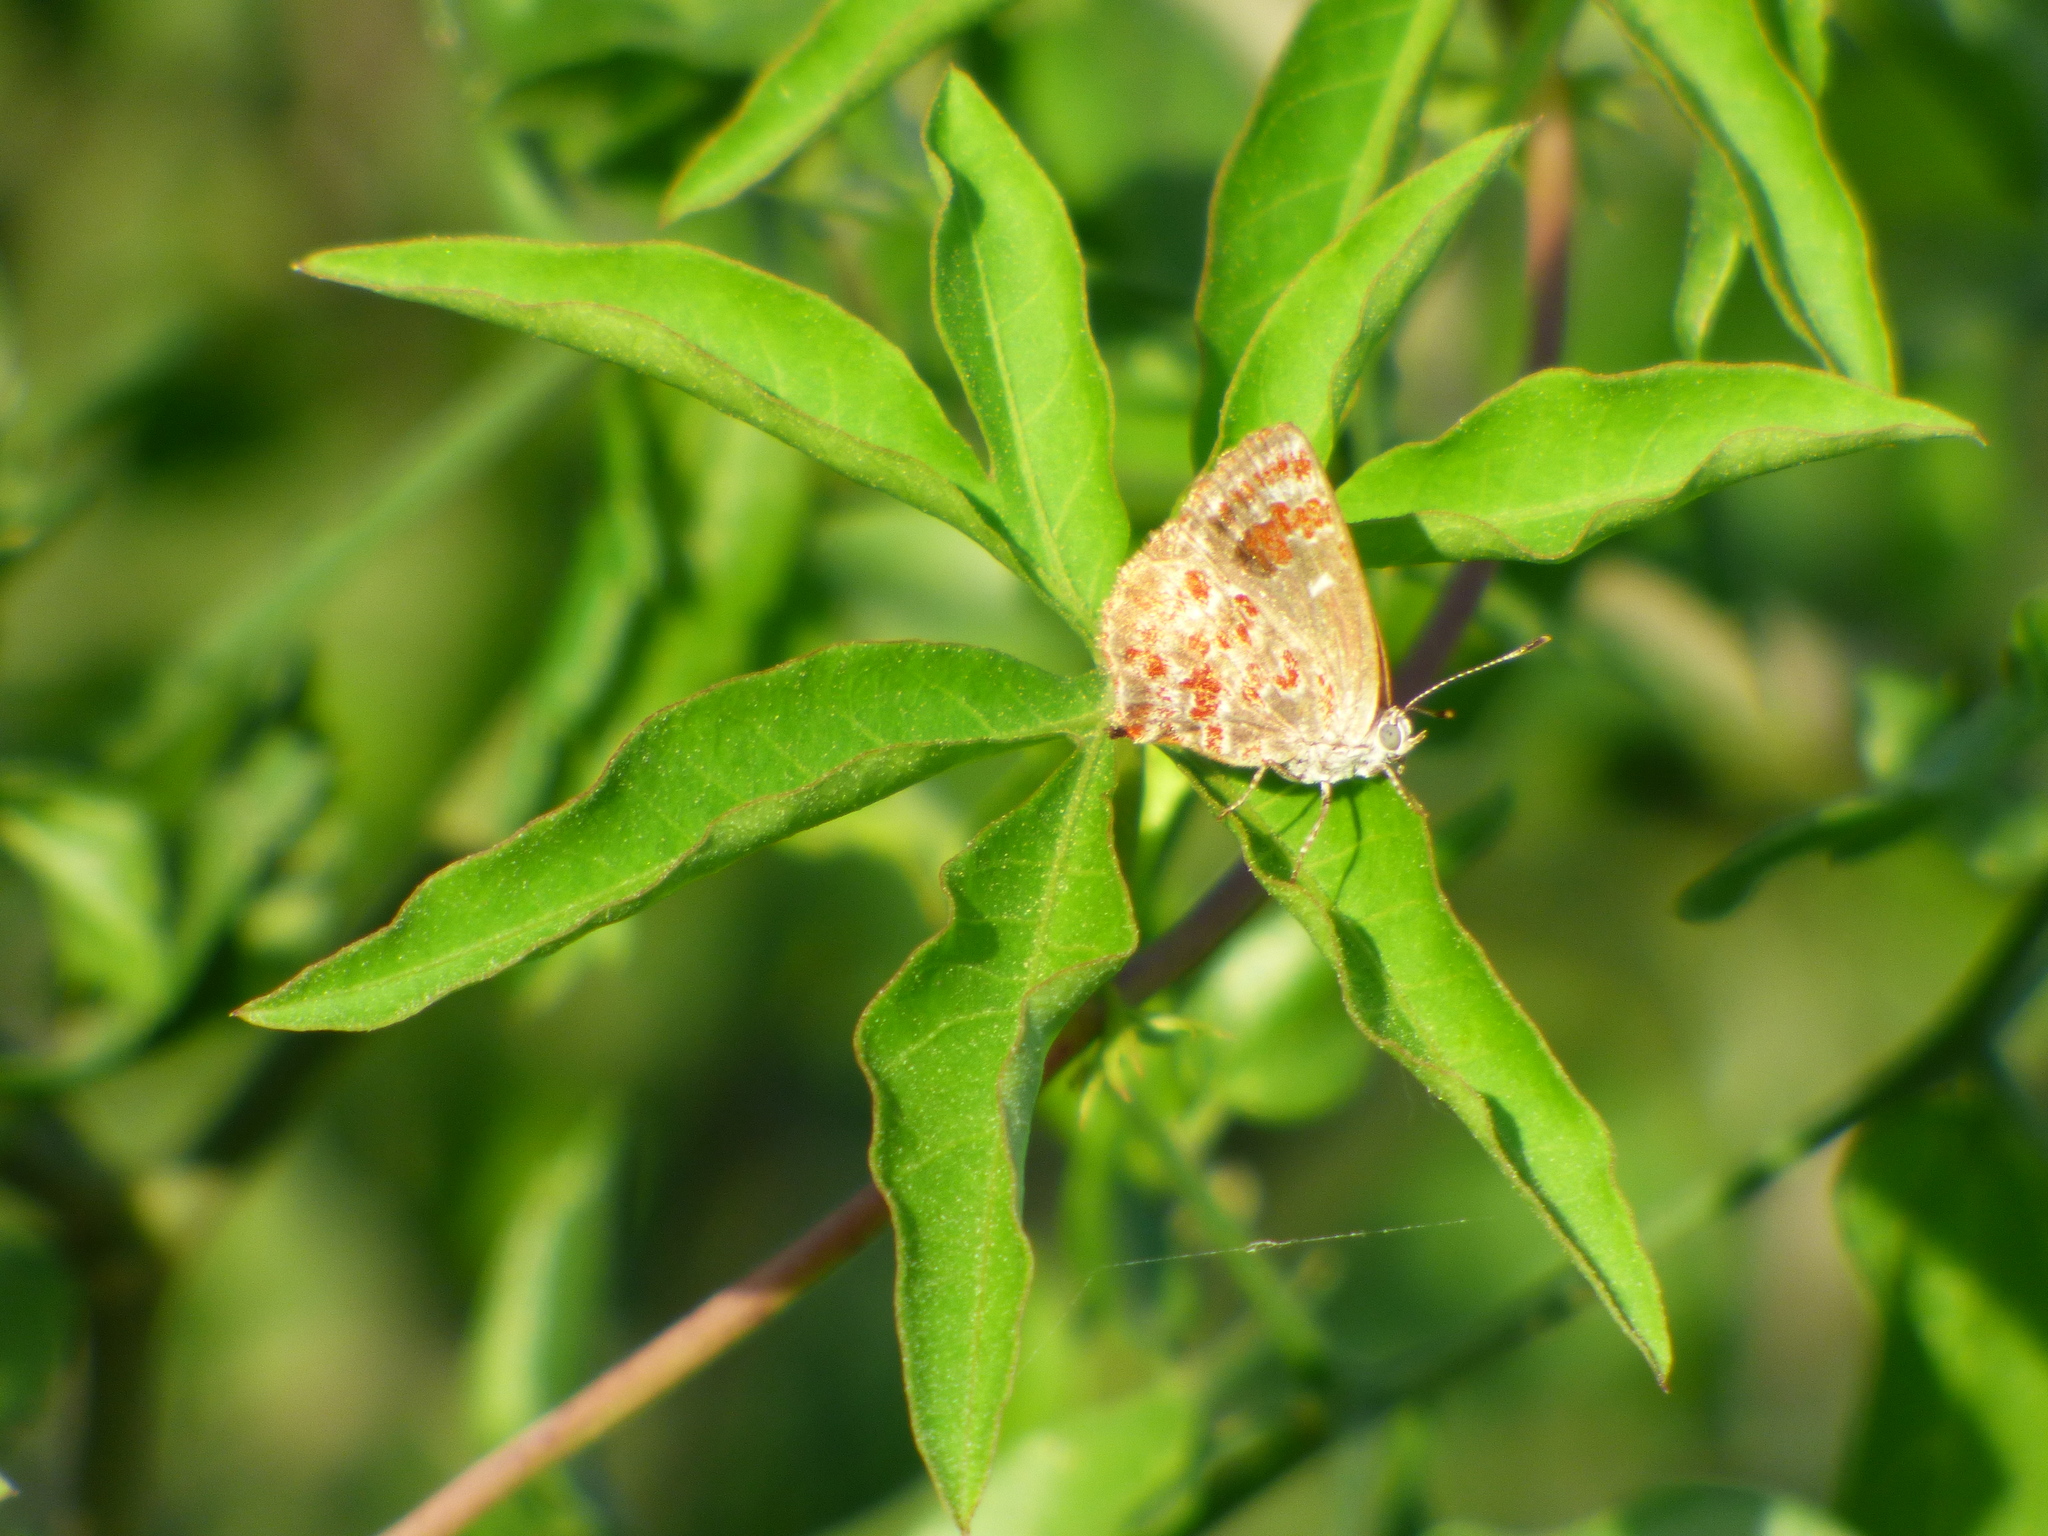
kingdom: Animalia
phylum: Arthropoda
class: Insecta
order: Lepidoptera
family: Lycaenidae
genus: Ministrymon
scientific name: Ministrymon
